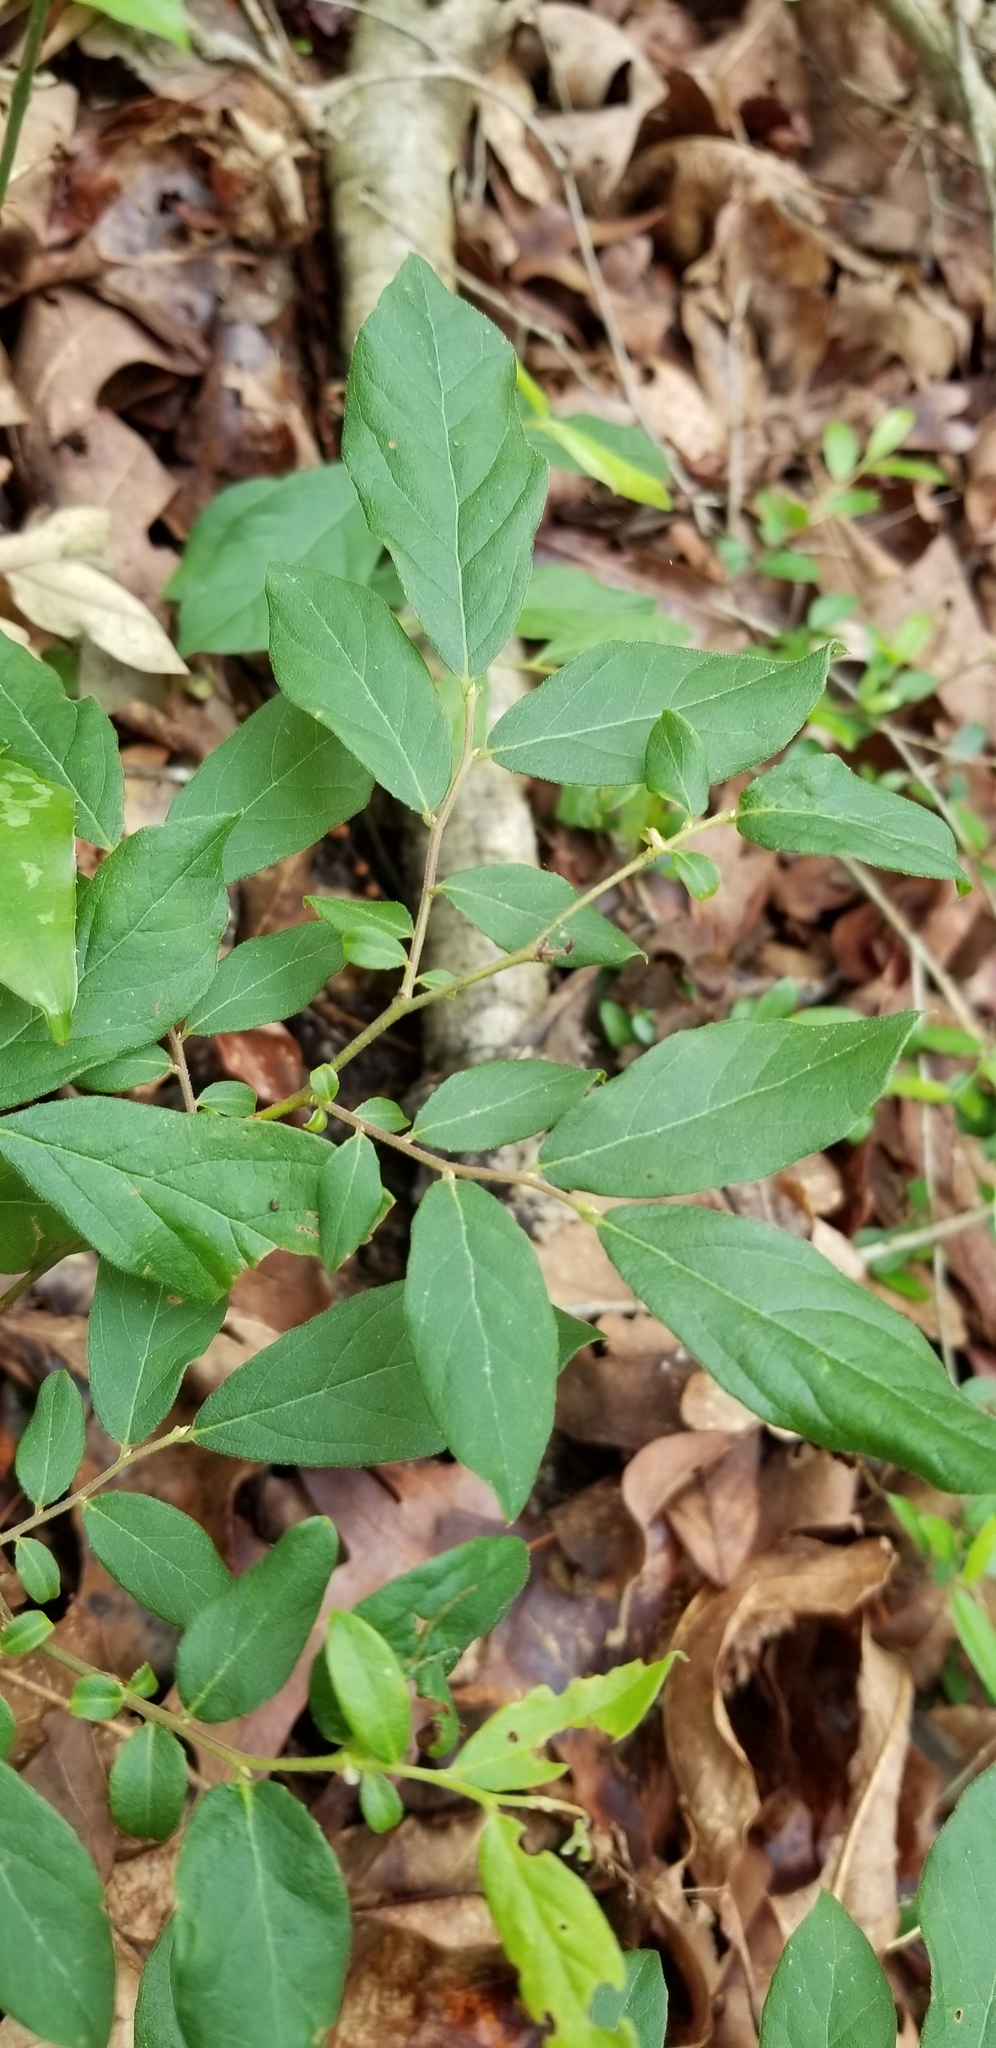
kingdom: Plantae
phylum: Tracheophyta
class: Magnoliopsida
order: Ericales
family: Ericaceae
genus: Vaccinium
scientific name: Vaccinium stamineum
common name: Deerberry
